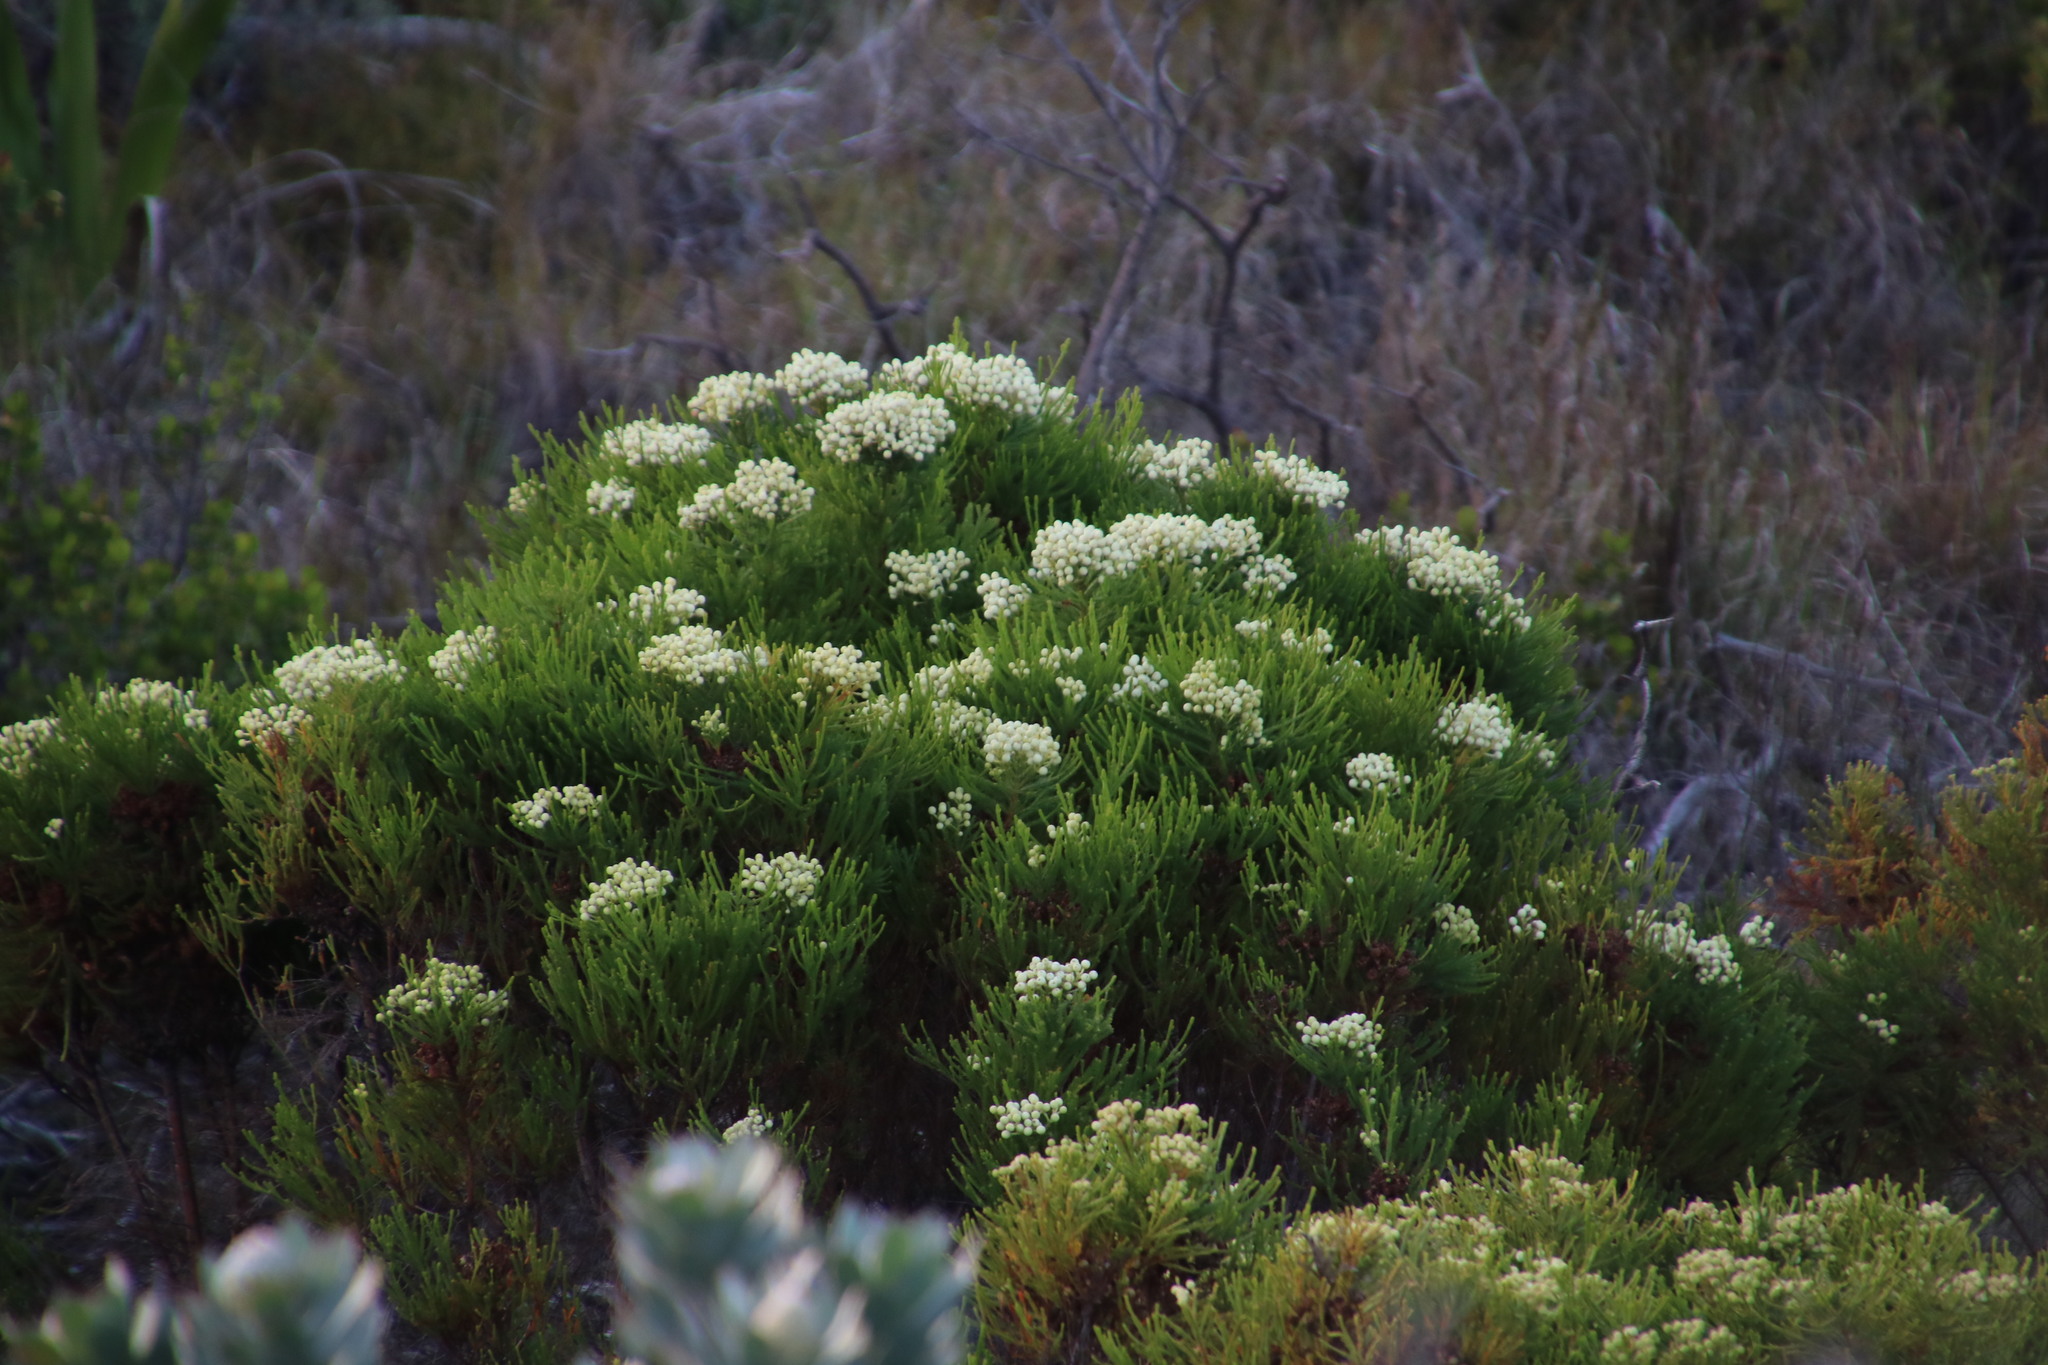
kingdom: Plantae
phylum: Tracheophyta
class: Magnoliopsida
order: Bruniales
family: Bruniaceae
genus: Berzelia
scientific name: Berzelia lanuginosa
